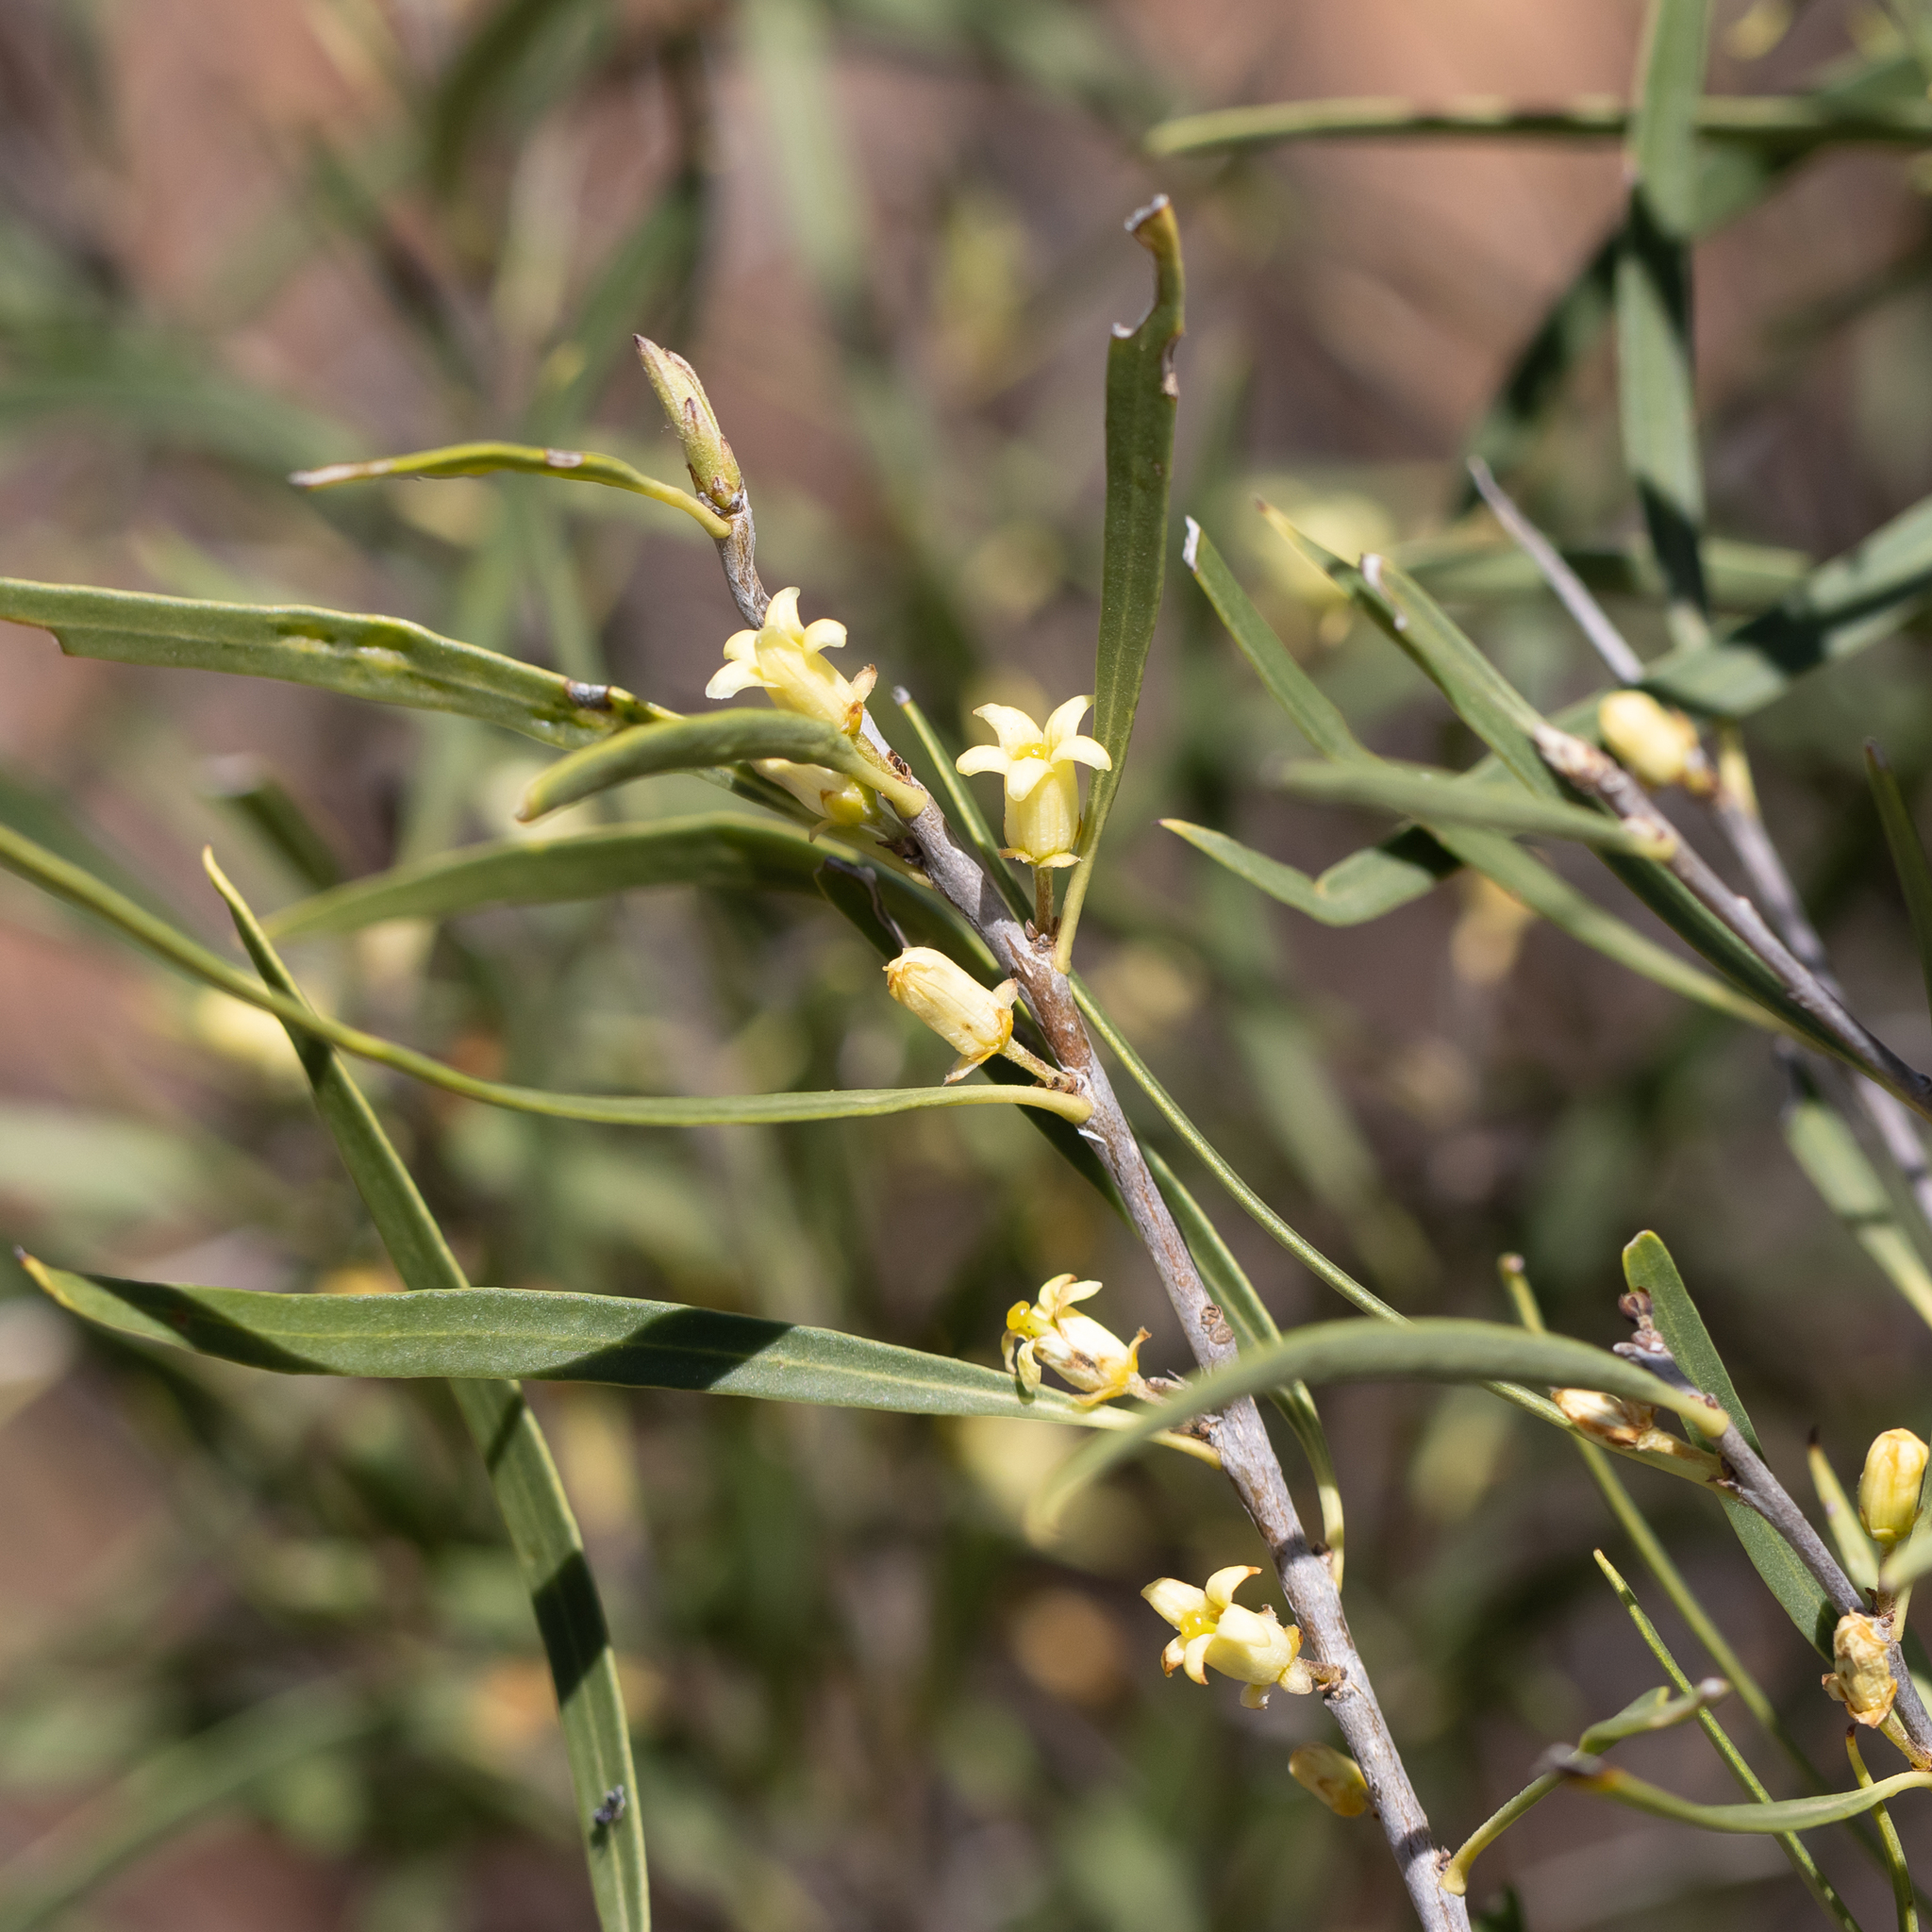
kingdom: Plantae
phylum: Tracheophyta
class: Magnoliopsida
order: Apiales
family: Pittosporaceae
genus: Pittosporum
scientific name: Pittosporum angustifolium
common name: Weeping pittosporum
